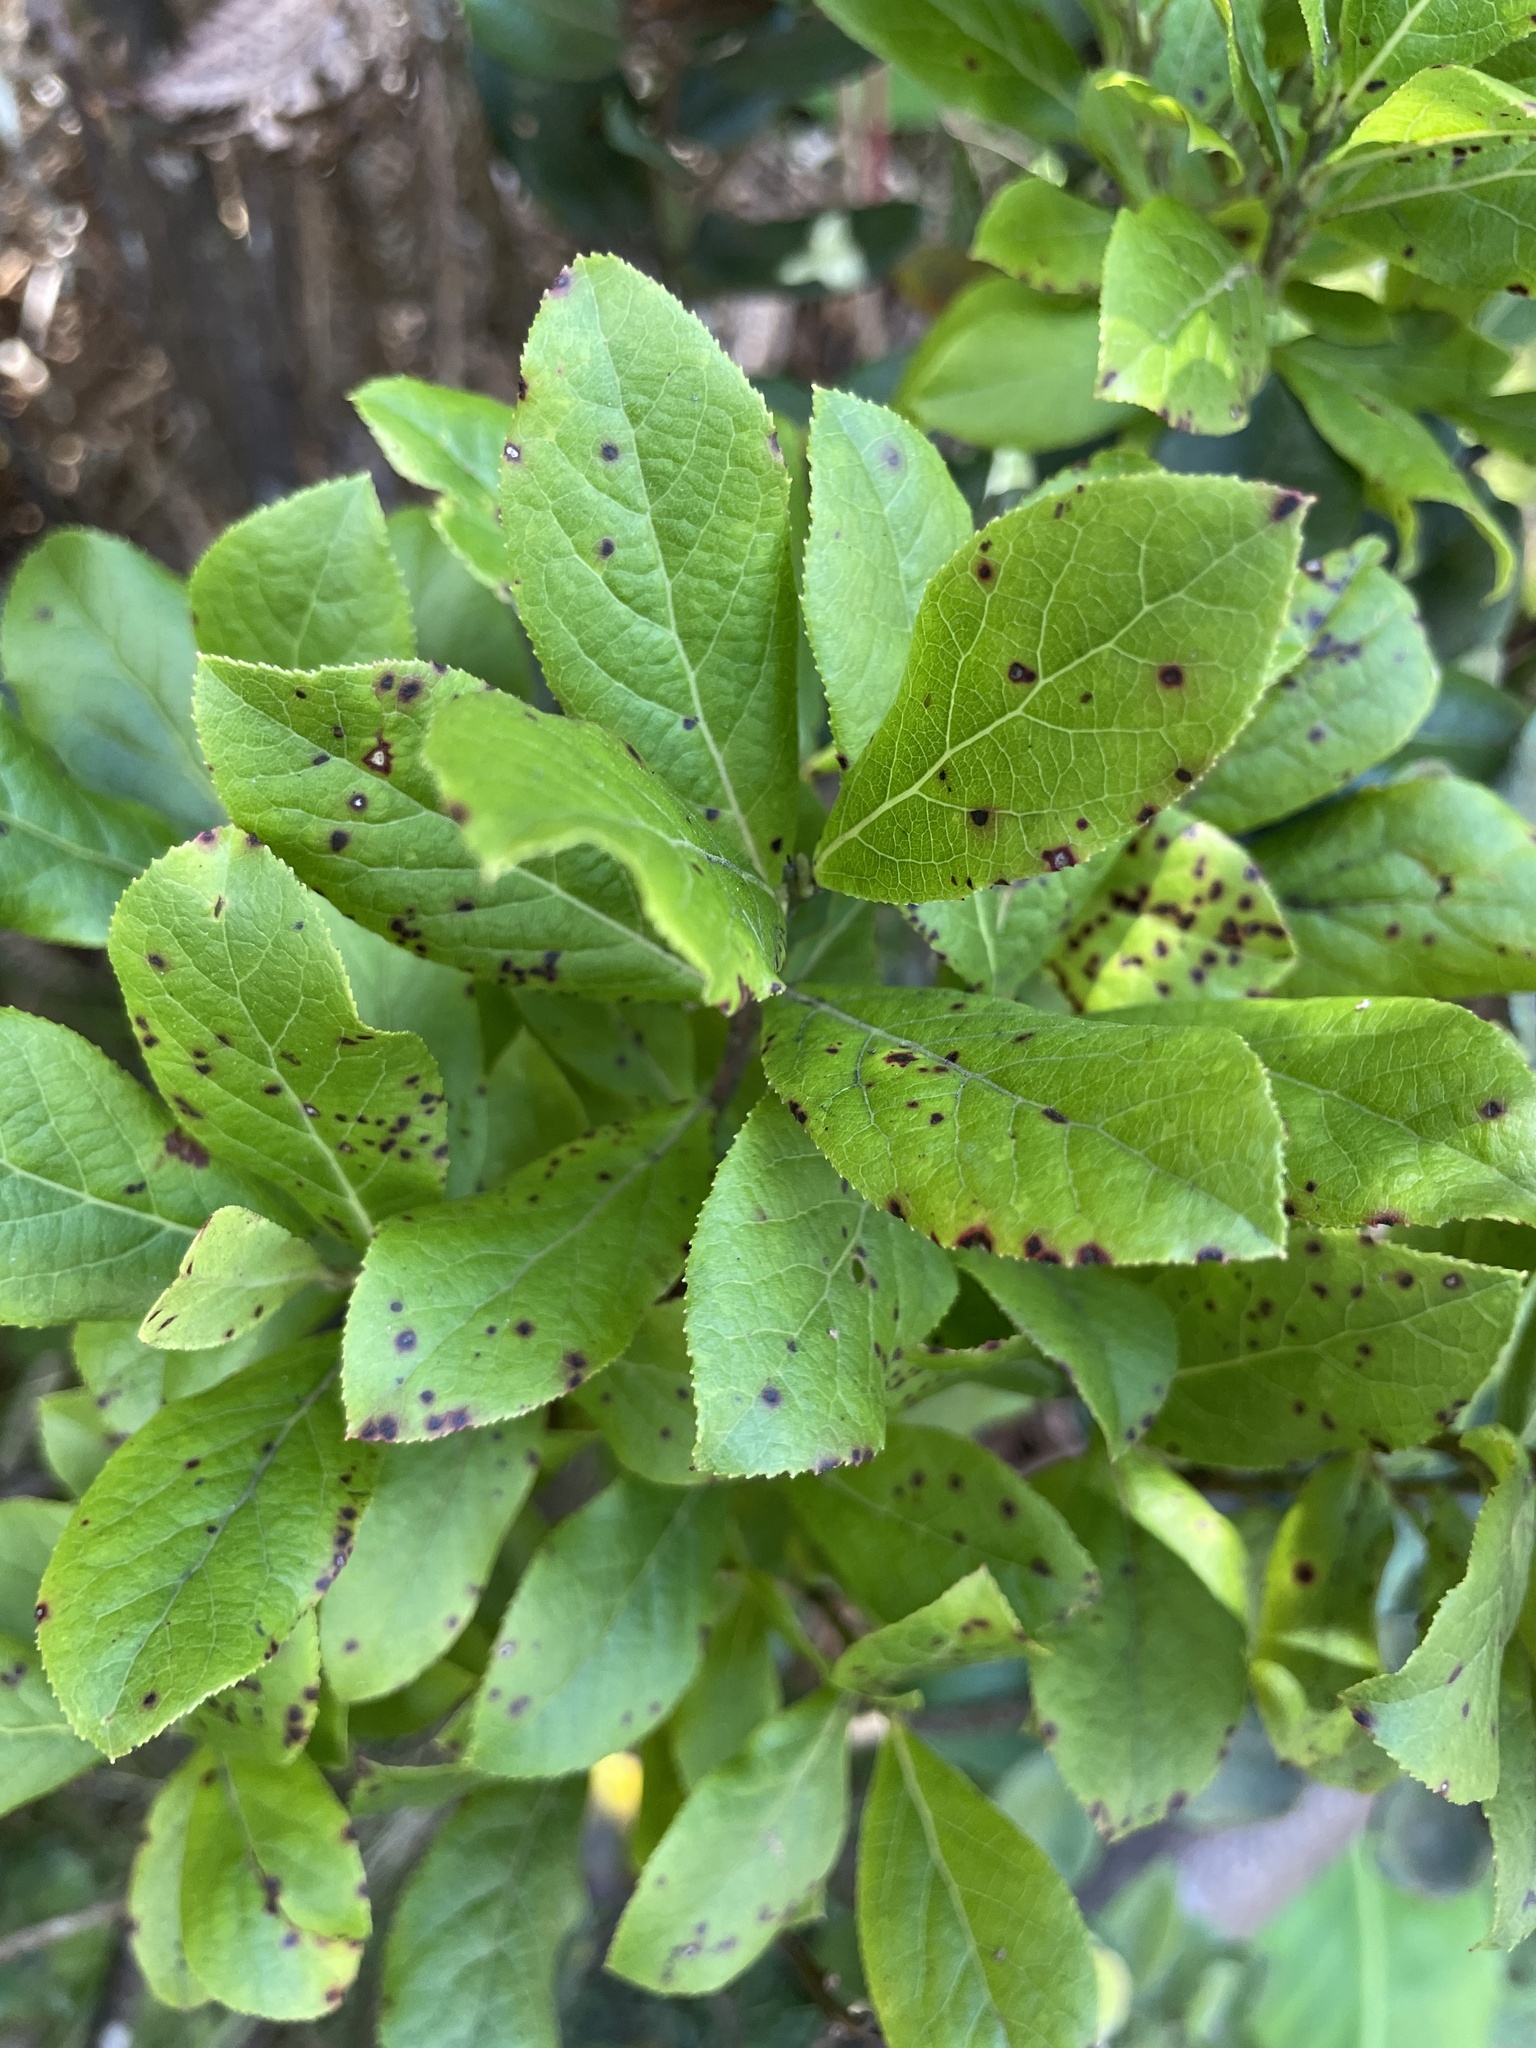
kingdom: Plantae
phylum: Tracheophyta
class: Magnoliopsida
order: Ericales
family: Ericaceae
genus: Vaccinium
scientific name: Vaccinium calycinum
